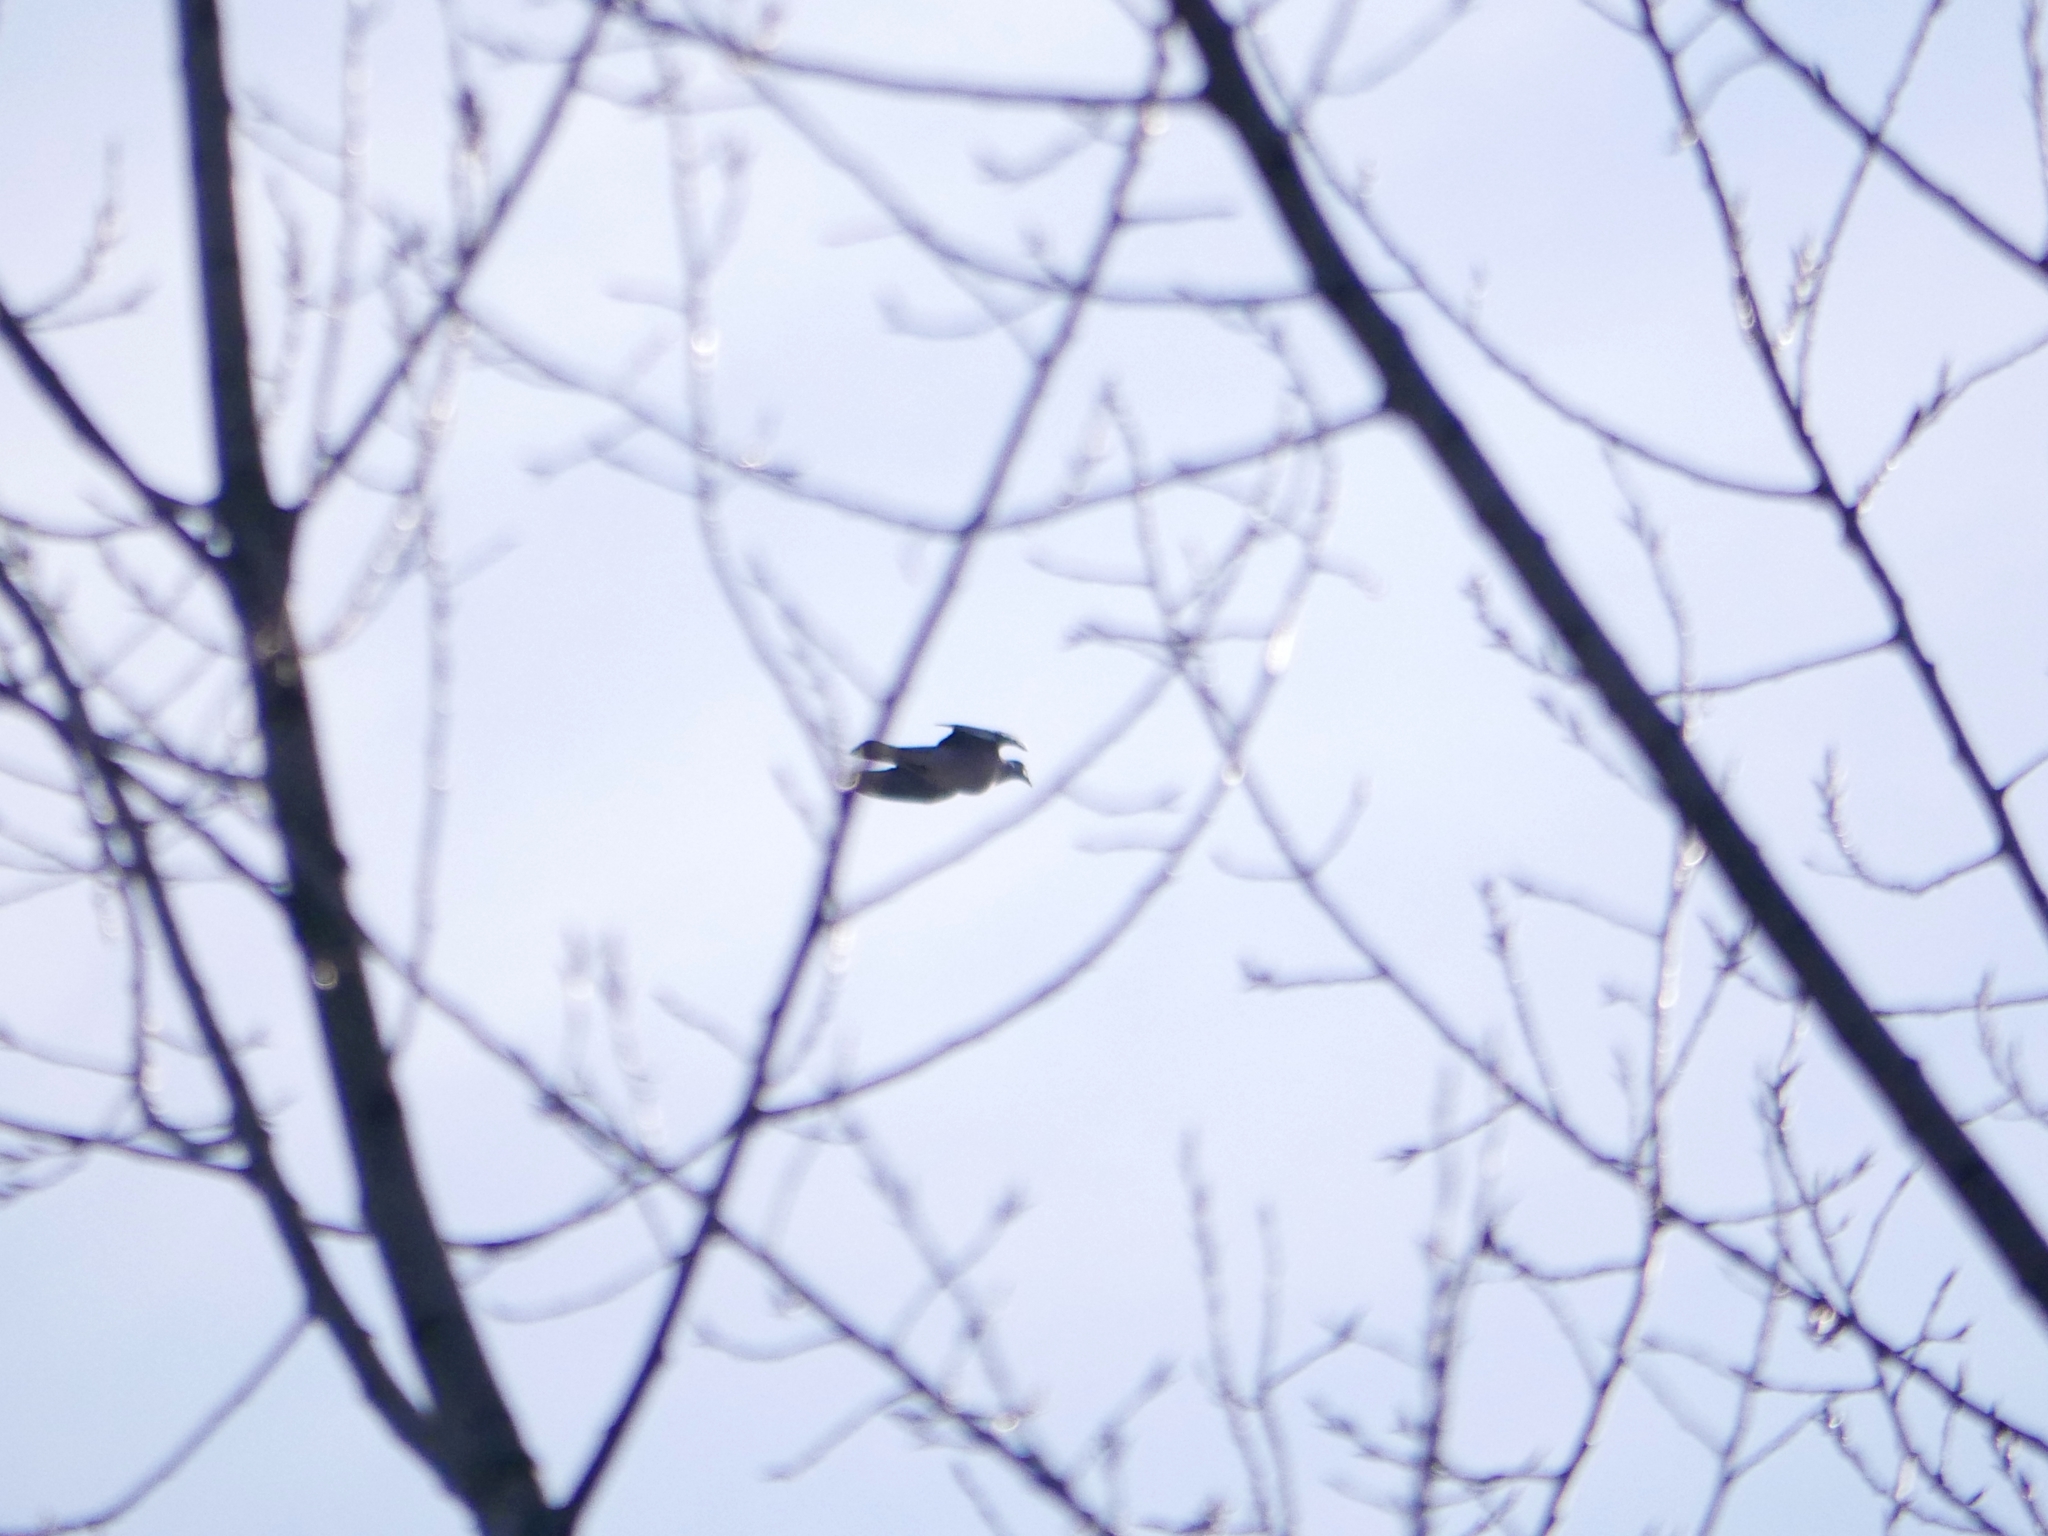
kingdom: Animalia
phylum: Chordata
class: Aves
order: Columbiformes
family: Columbidae
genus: Columba
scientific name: Columba palumbus
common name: Common wood pigeon
